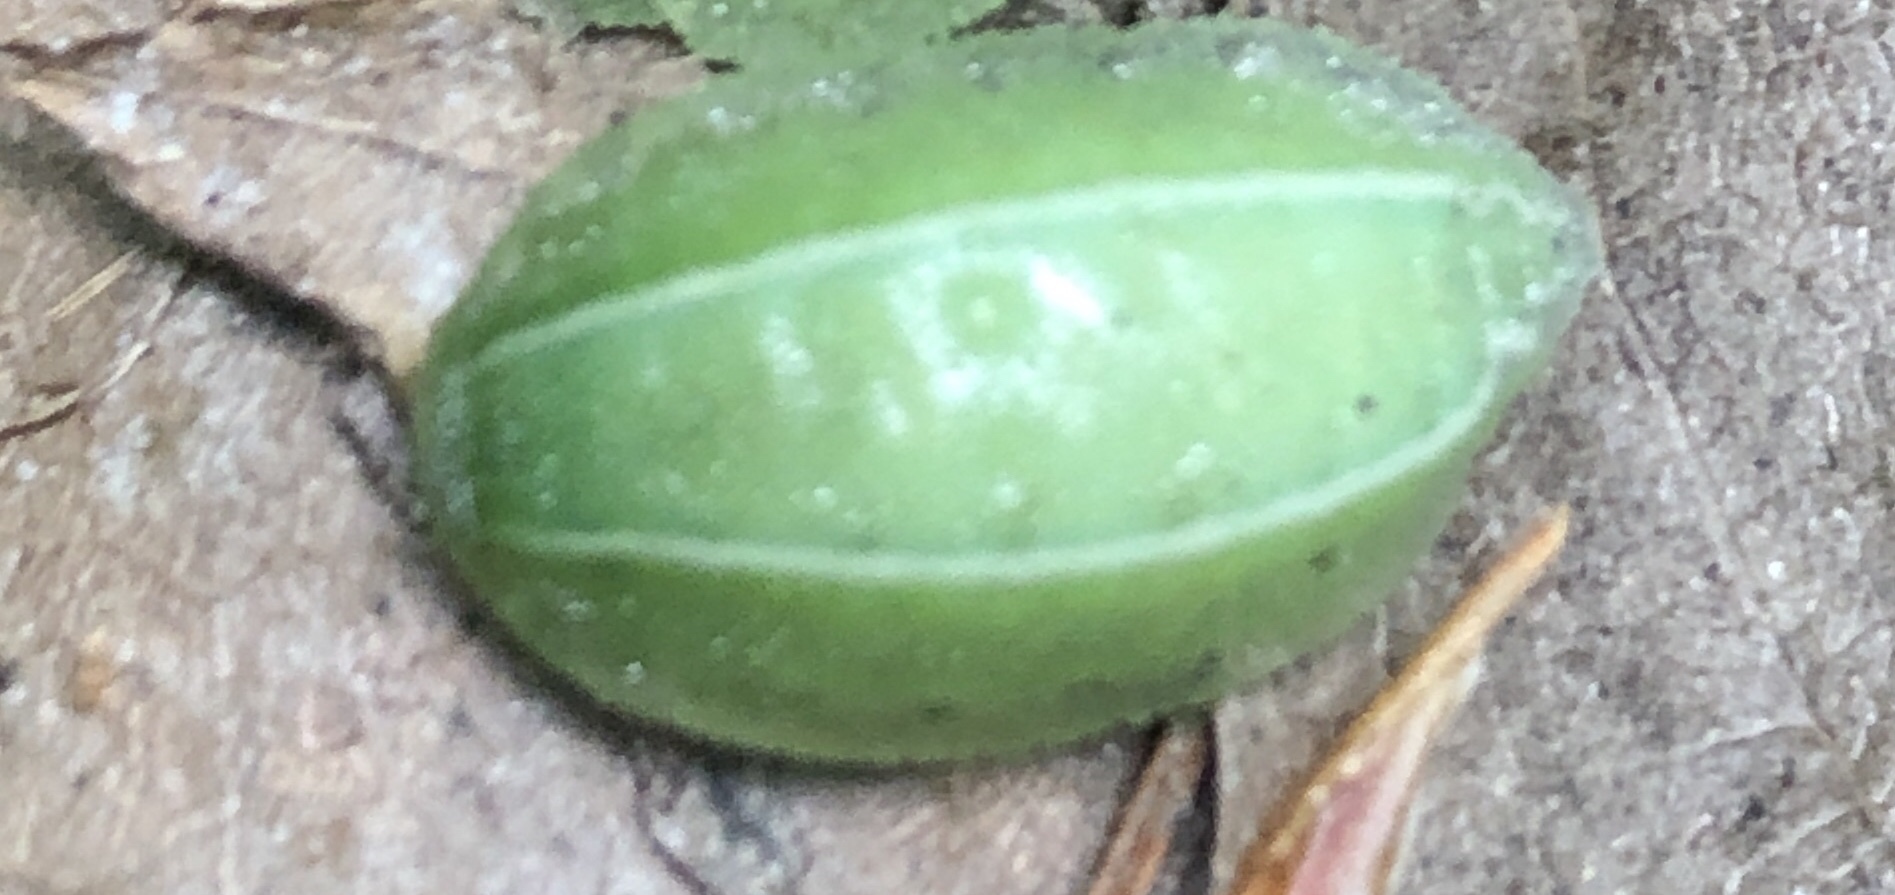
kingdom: Animalia
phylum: Arthropoda
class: Insecta
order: Lepidoptera
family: Limacodidae
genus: Apoda
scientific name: Apoda biguttata
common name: Shagreened slug moth
